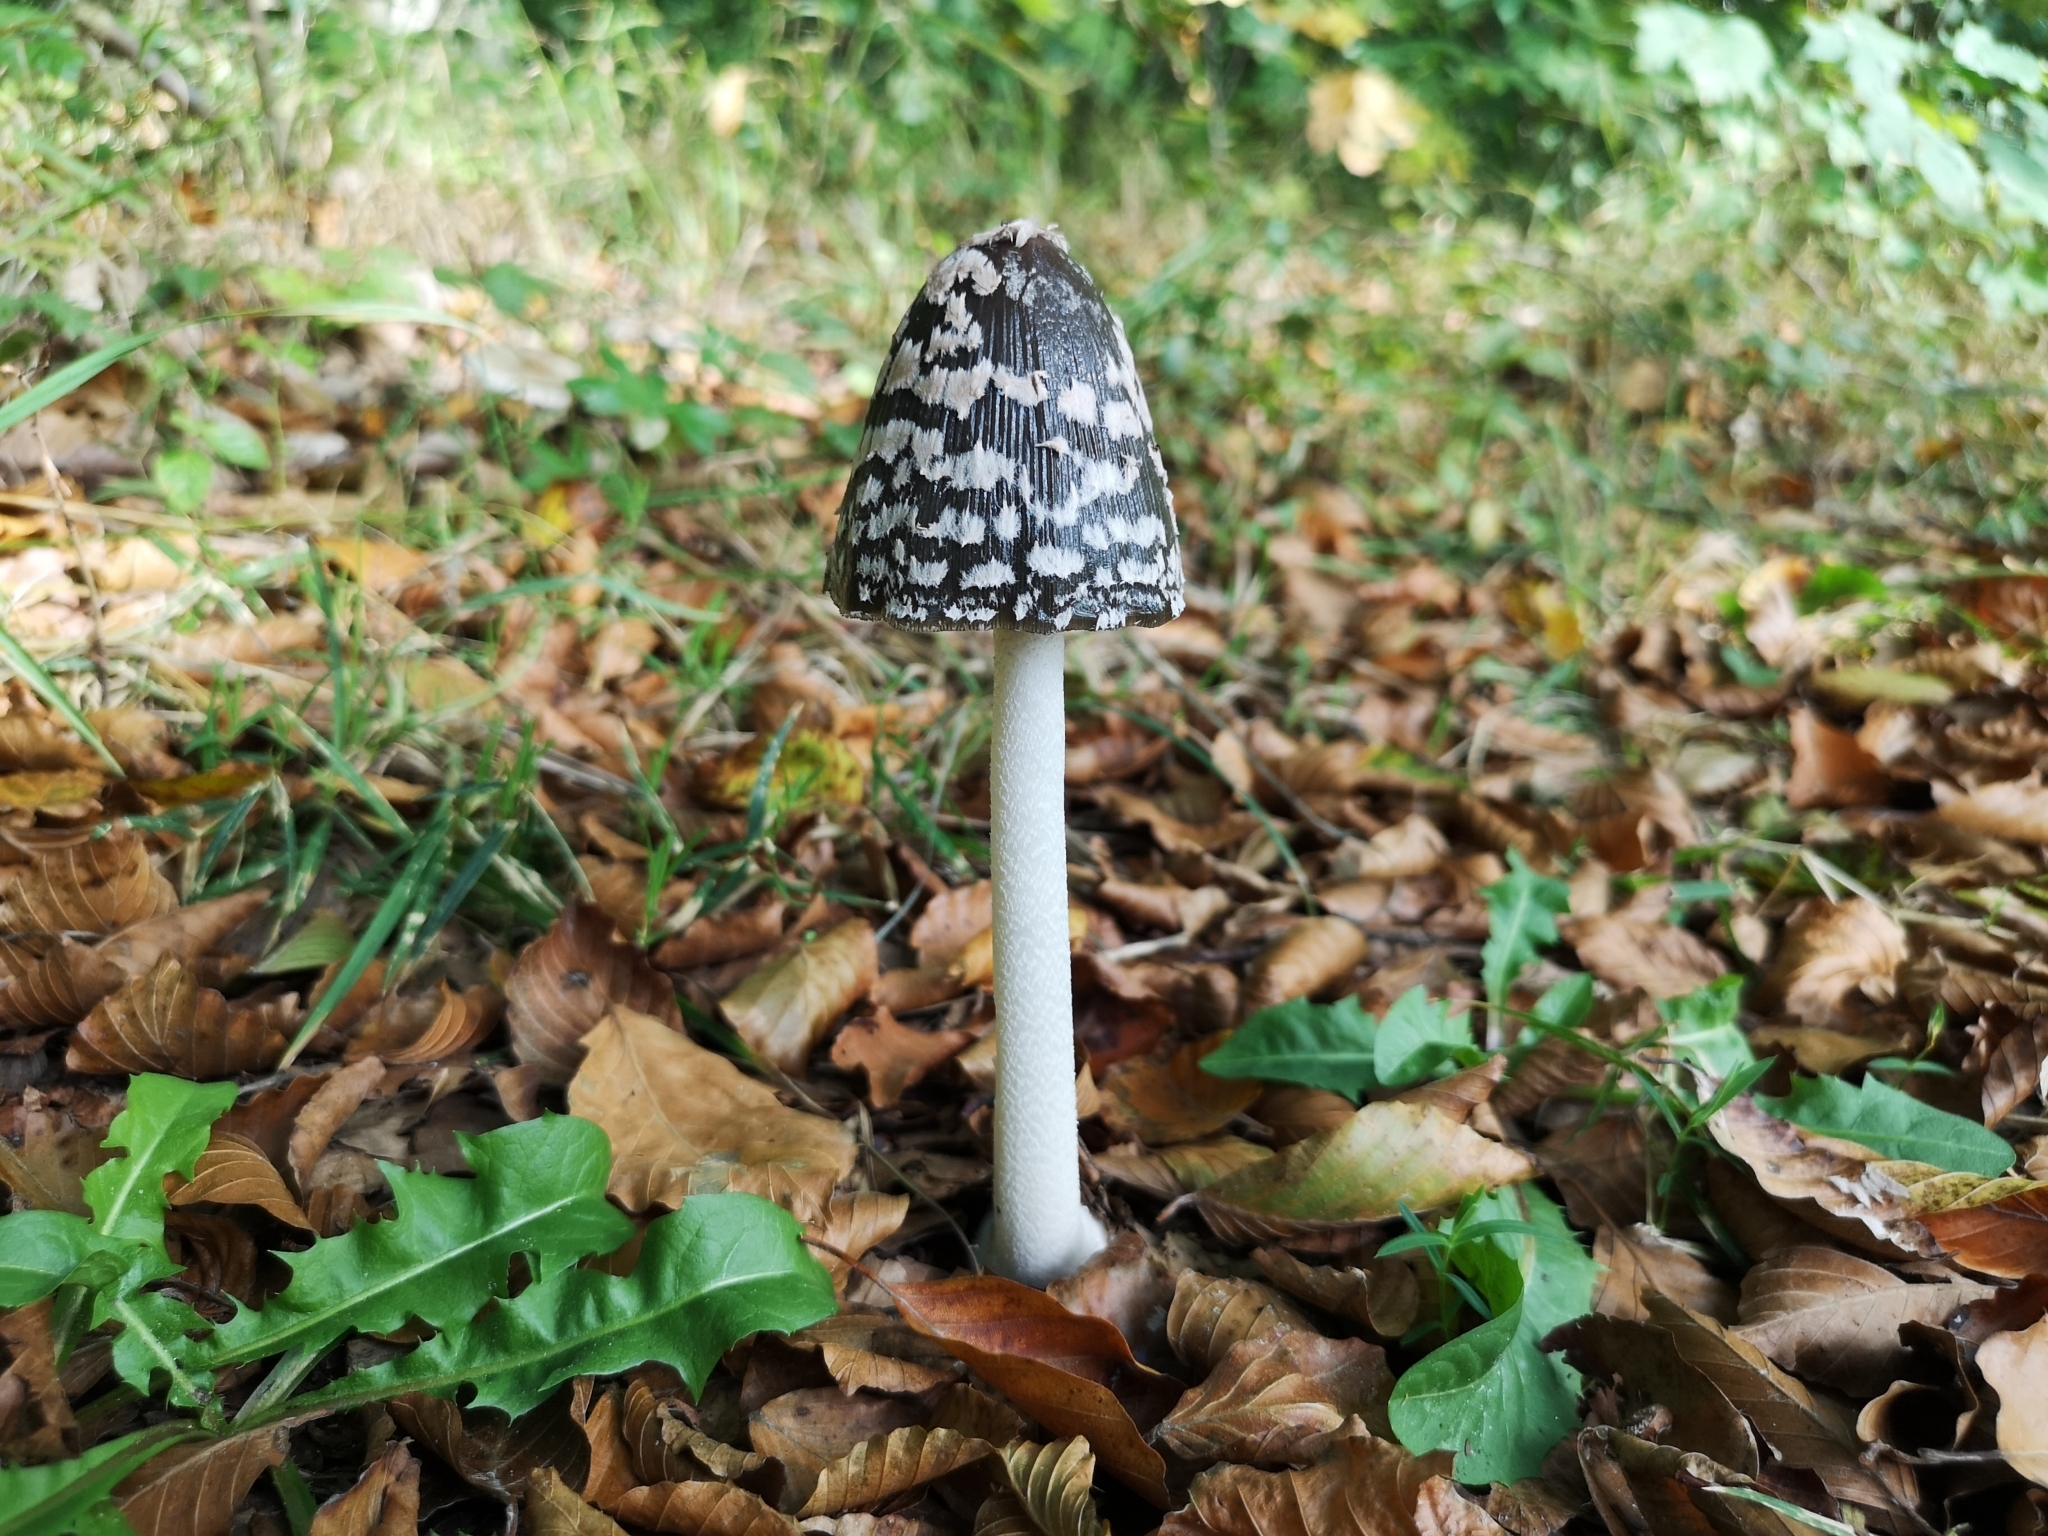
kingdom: Fungi
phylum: Basidiomycota
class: Agaricomycetes
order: Agaricales
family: Psathyrellaceae
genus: Coprinopsis
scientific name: Coprinopsis picacea
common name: Magpie inkcap
